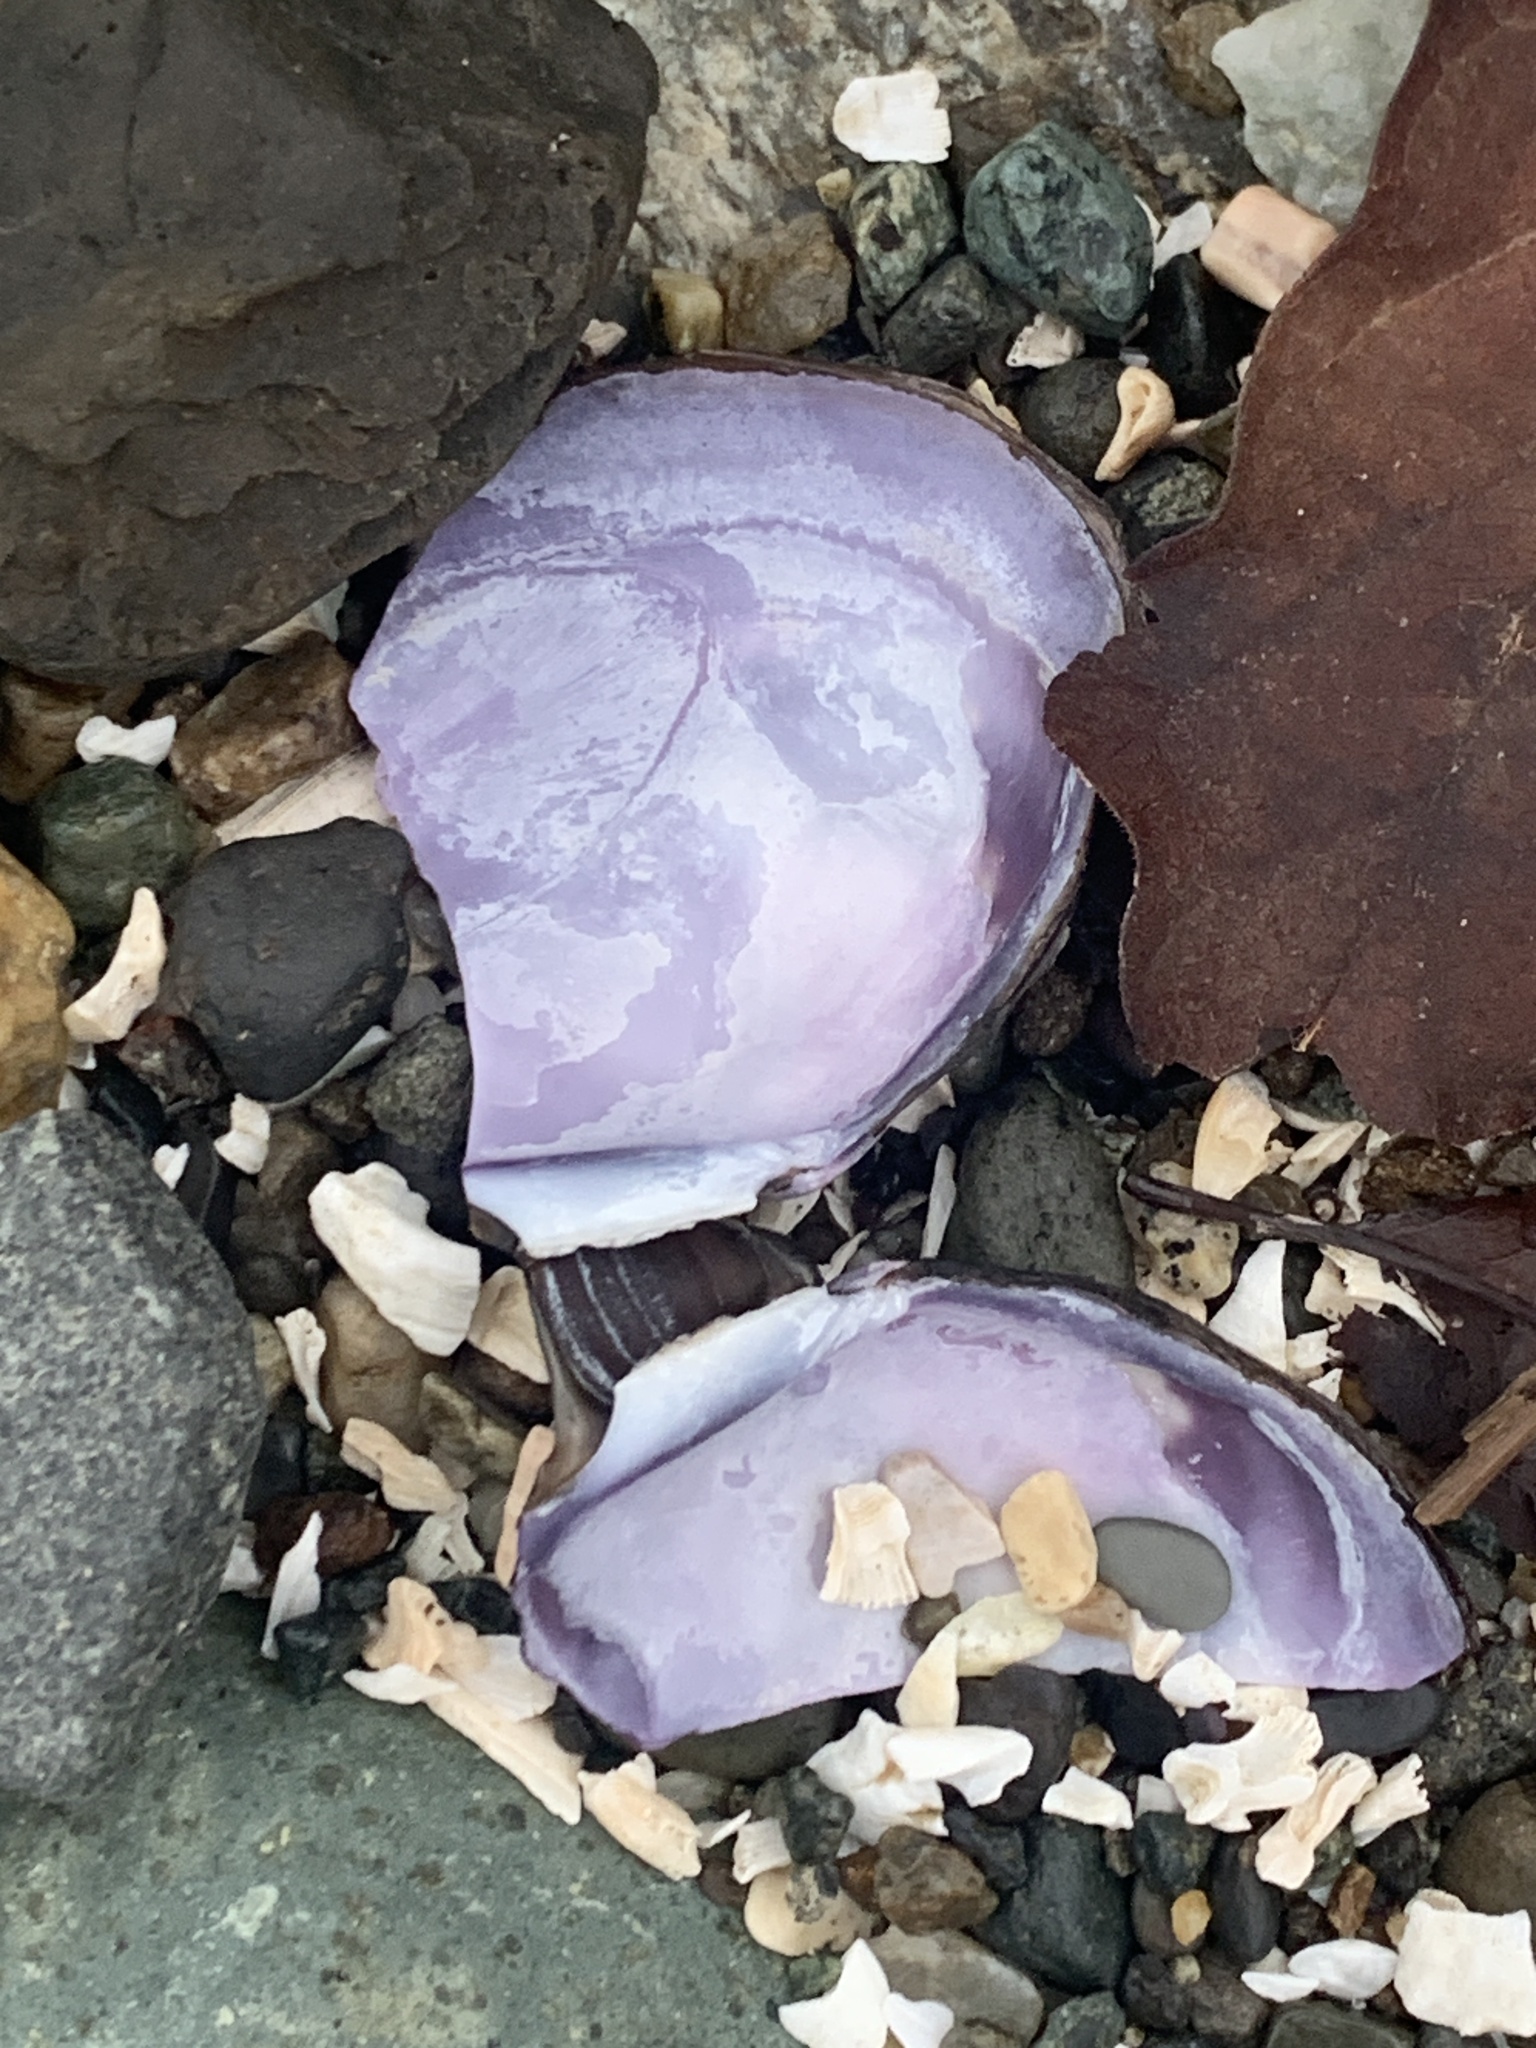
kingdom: Animalia
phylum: Mollusca
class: Bivalvia
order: Cardiida
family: Psammobiidae
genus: Nuttallia
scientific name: Nuttallia obscurata
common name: Purple mahogany-clam
